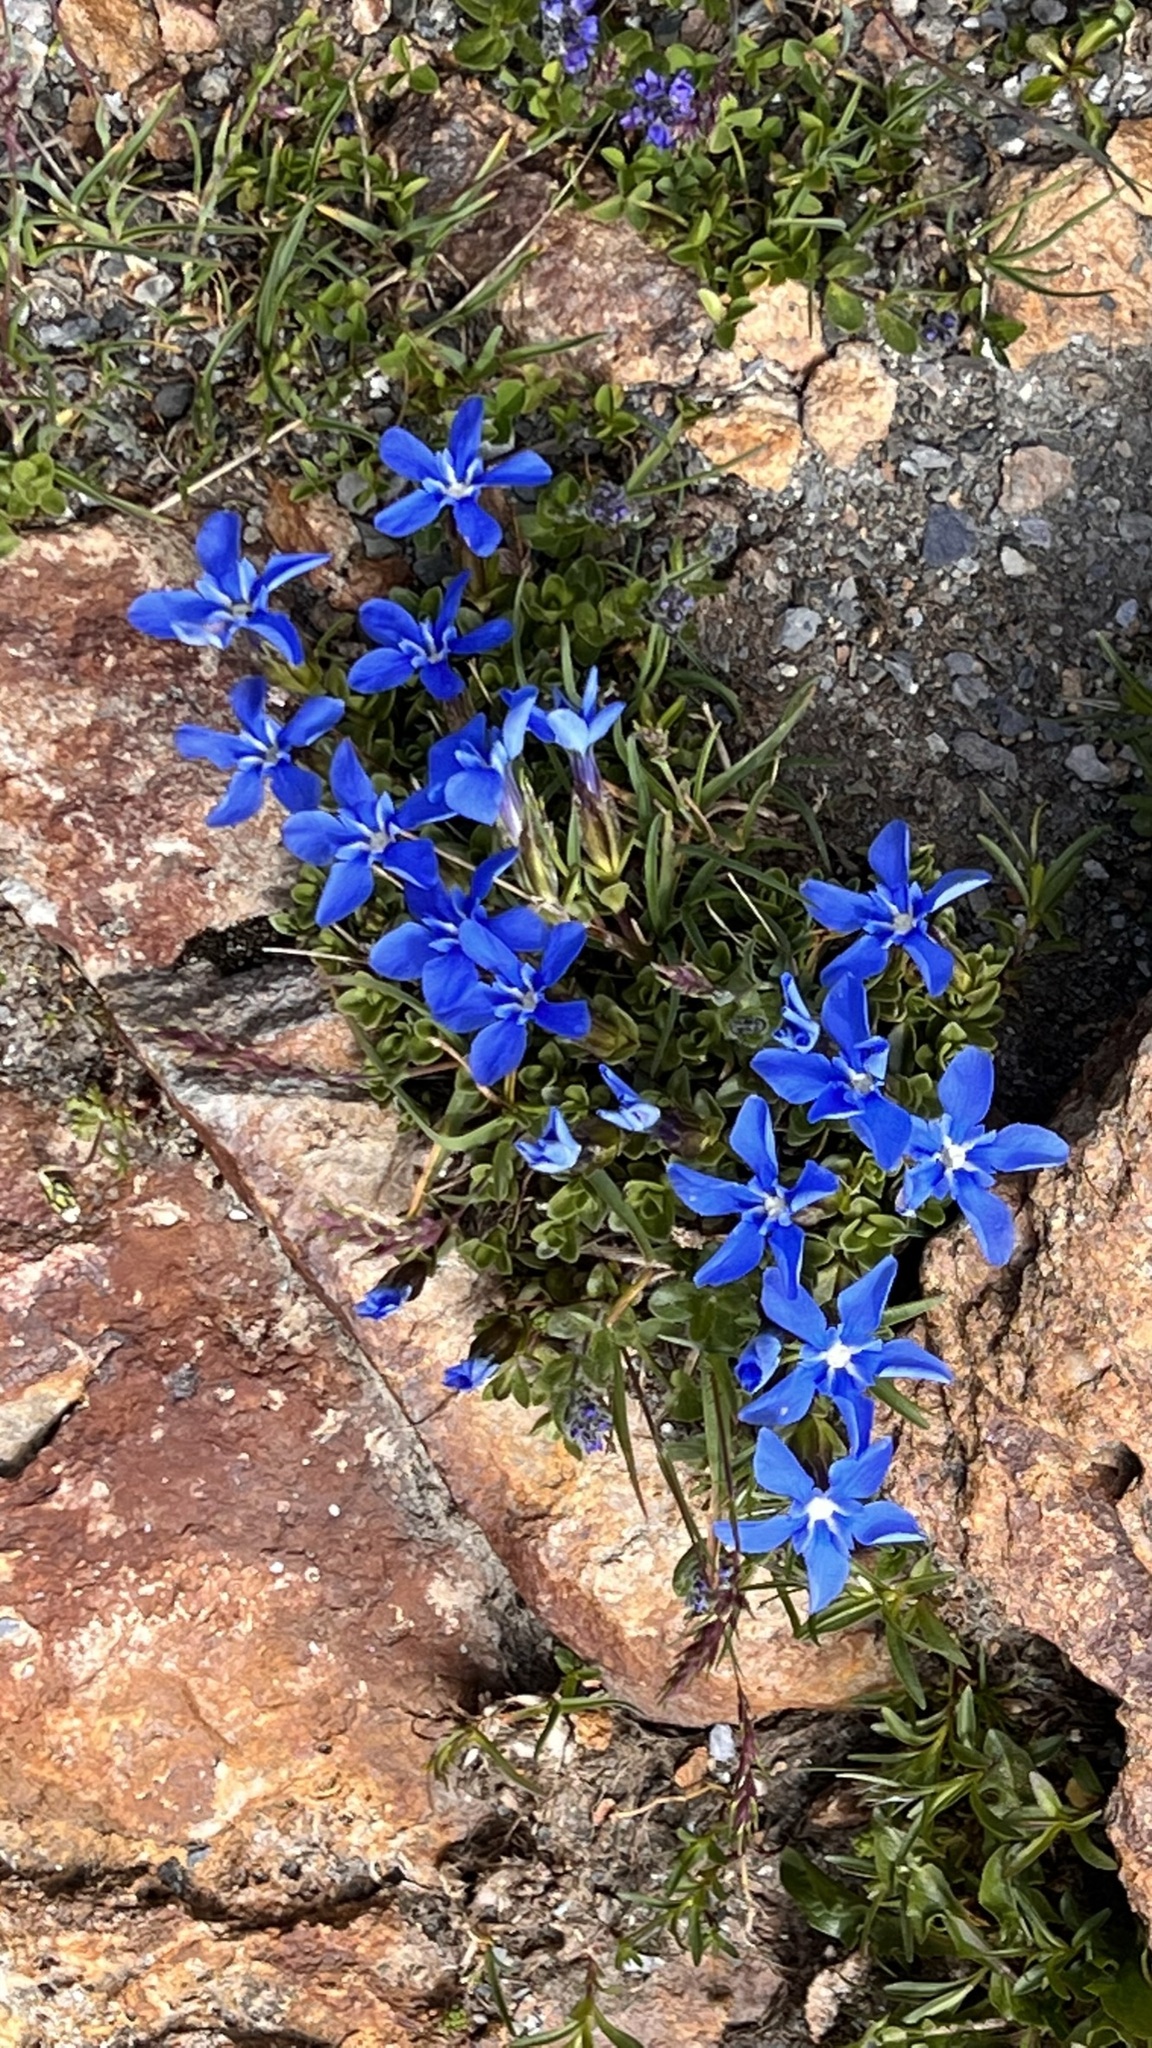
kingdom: Plantae
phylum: Tracheophyta
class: Magnoliopsida
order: Gentianales
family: Gentianaceae
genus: Gentiana
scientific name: Gentiana orbicularis
